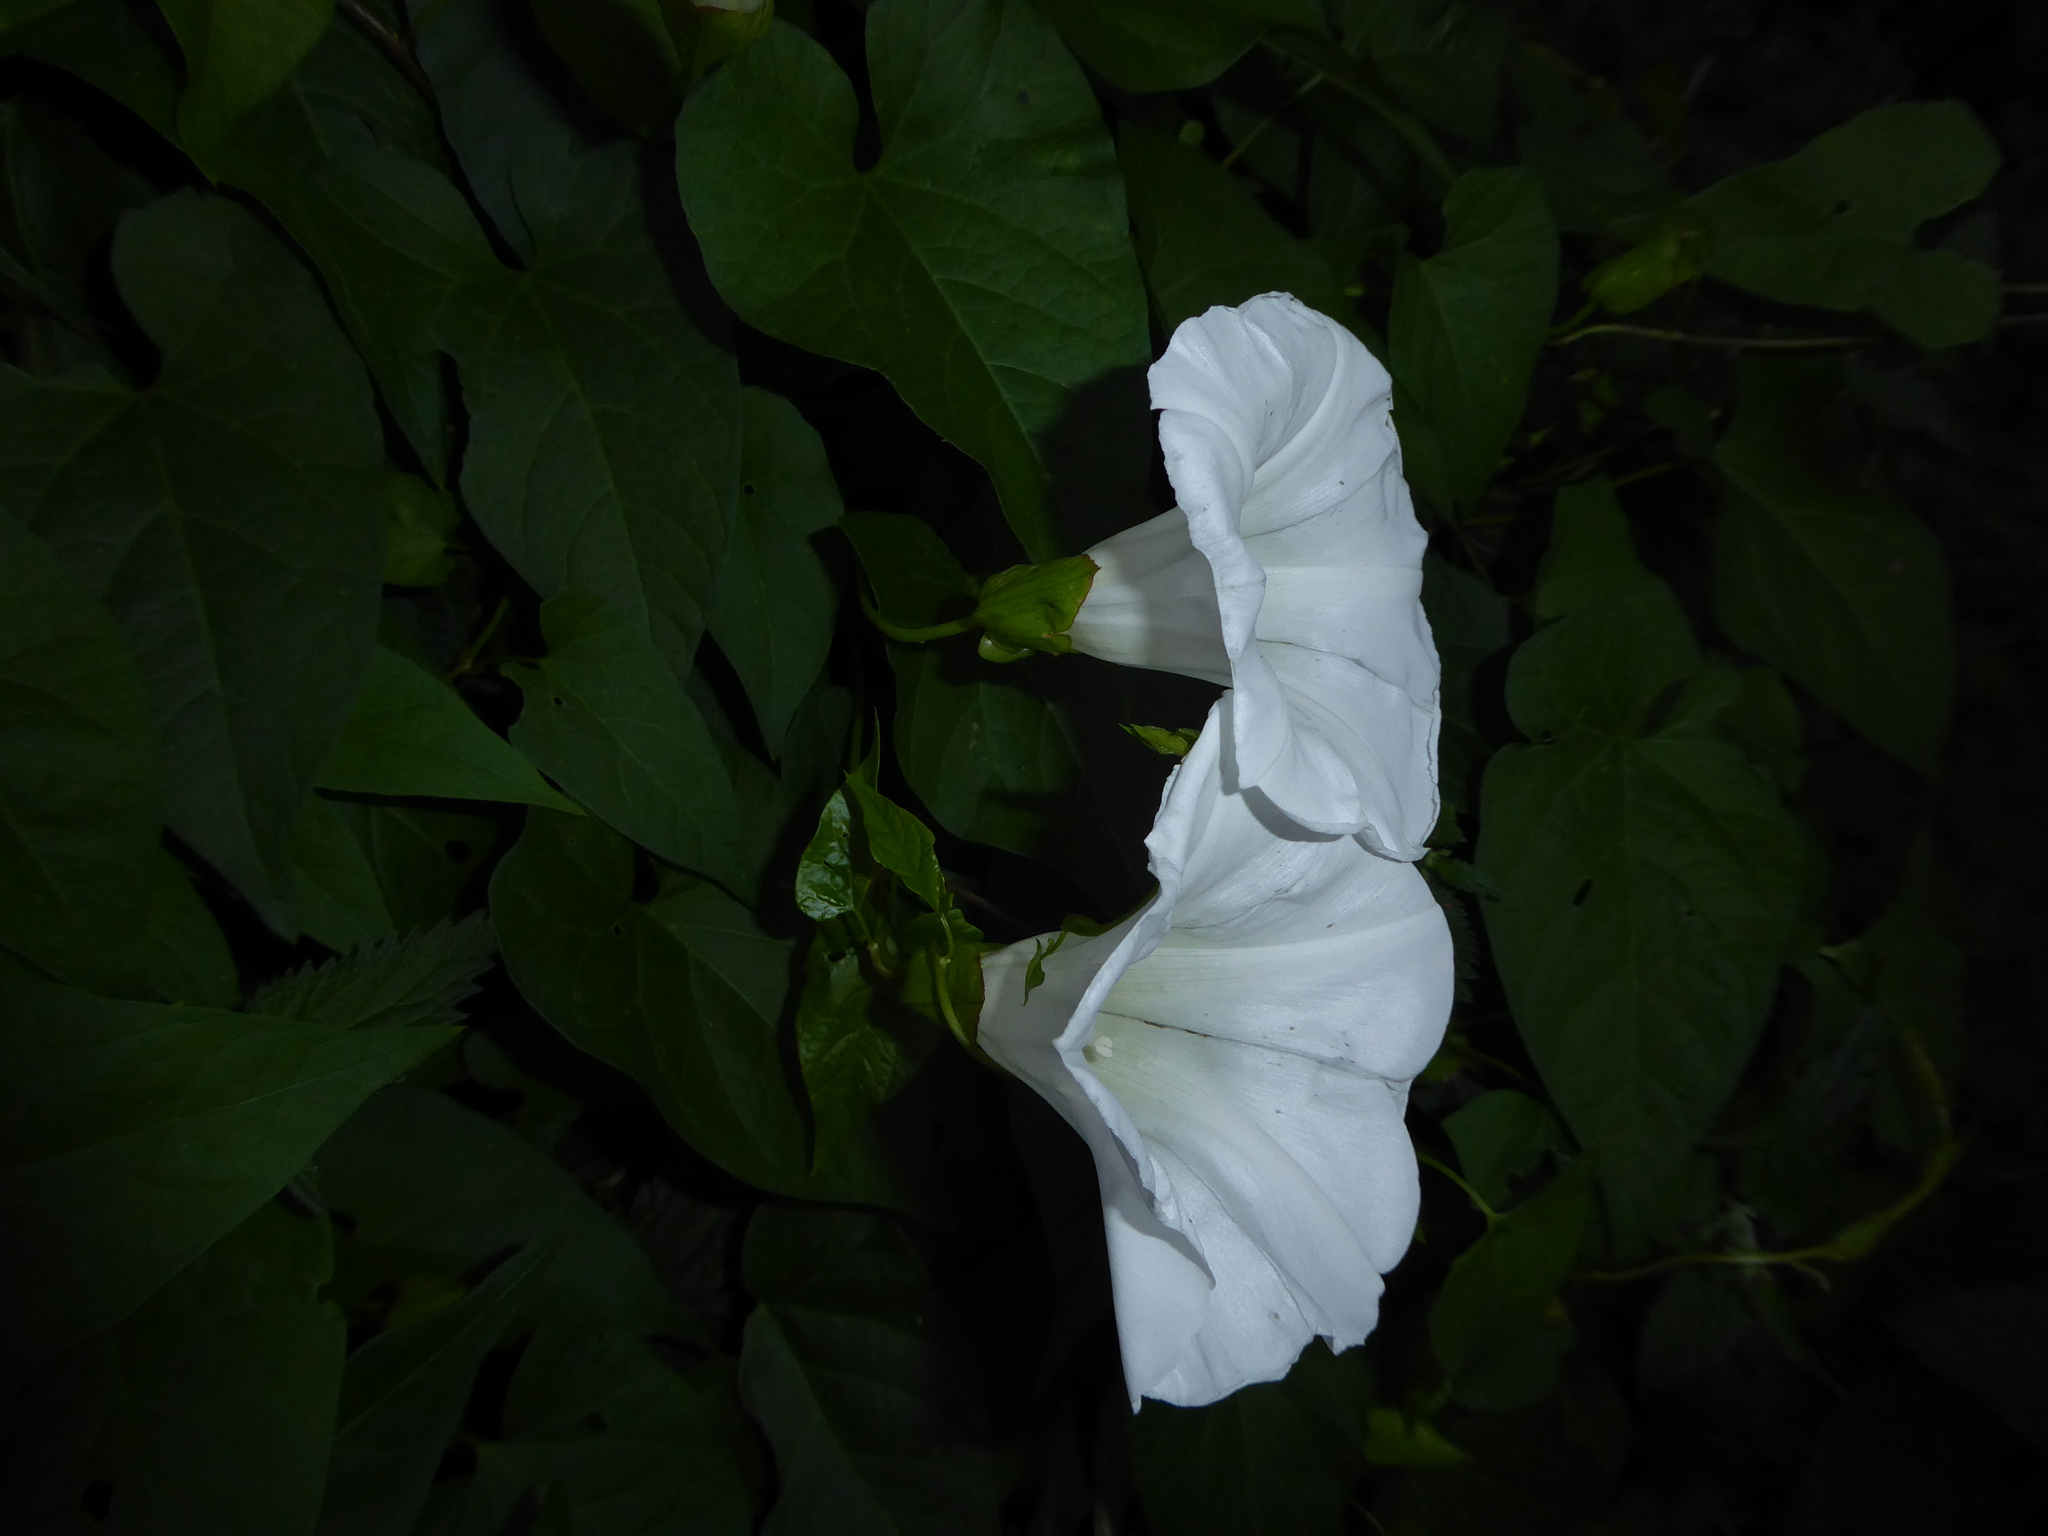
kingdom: Plantae
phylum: Tracheophyta
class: Magnoliopsida
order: Solanales
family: Convolvulaceae
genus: Calystegia
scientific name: Calystegia silvatica
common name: Large bindweed
